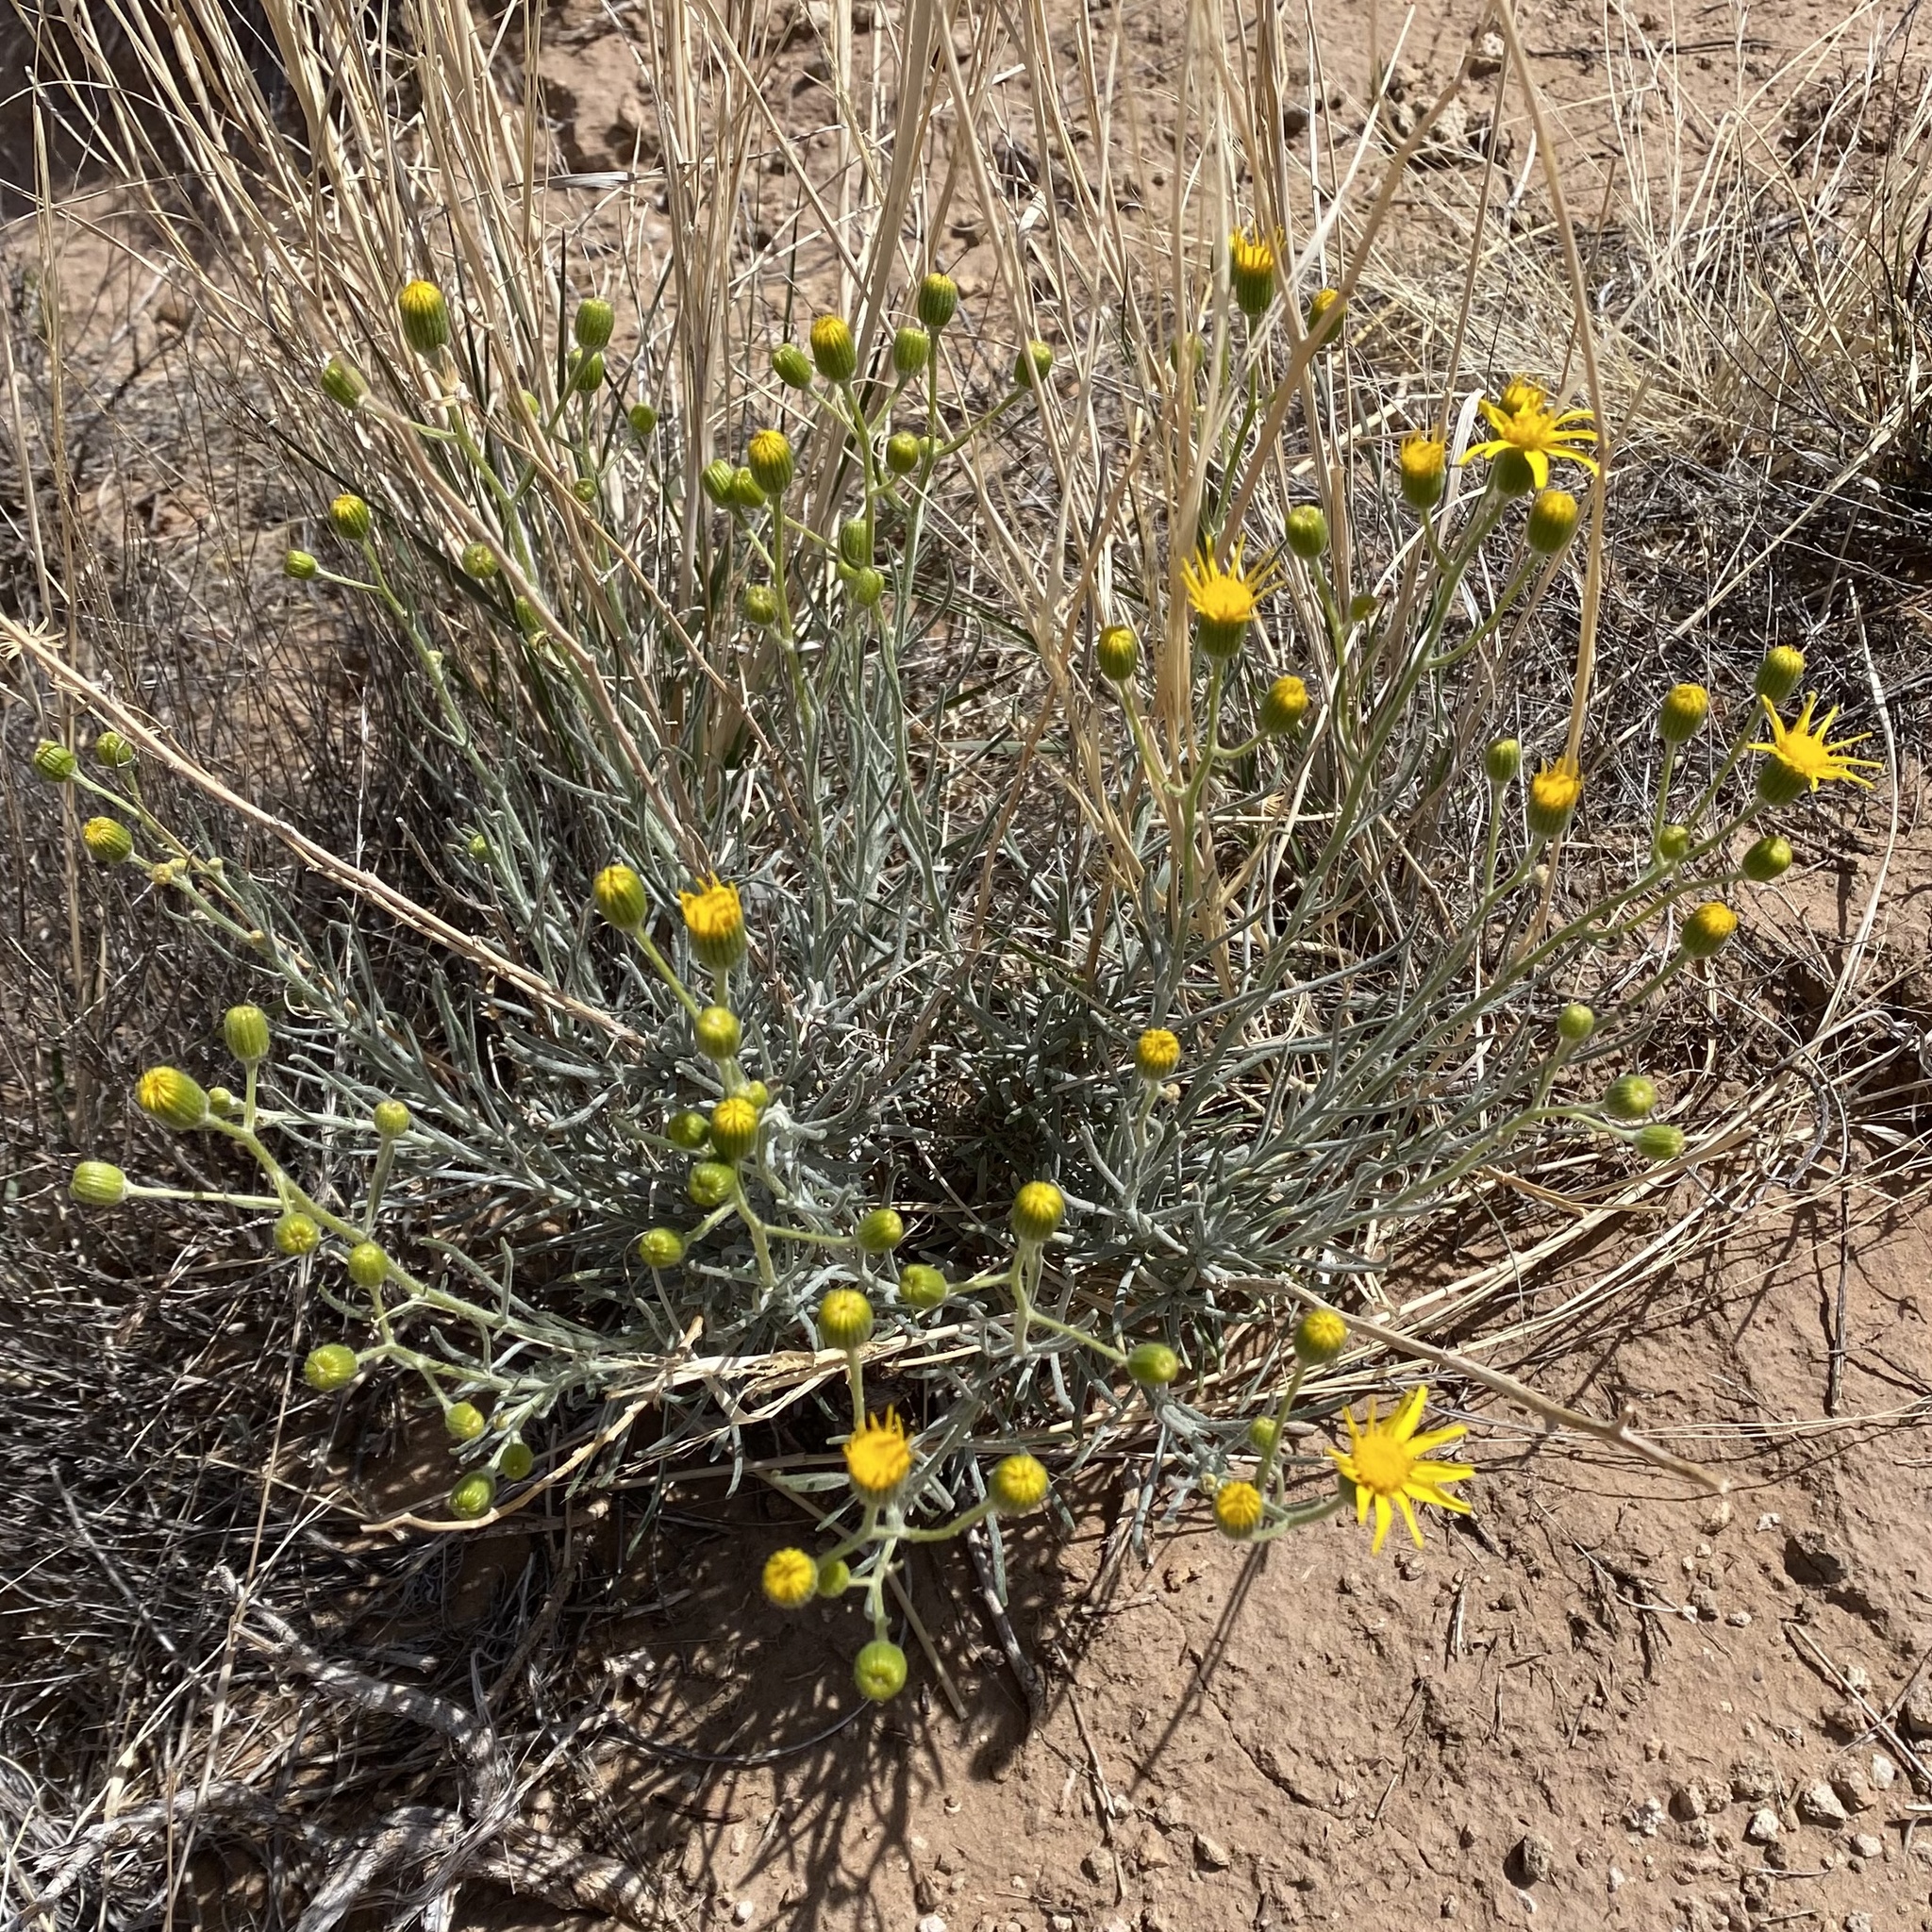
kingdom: Plantae
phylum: Tracheophyta
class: Magnoliopsida
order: Asterales
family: Asteraceae
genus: Senecio
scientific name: Senecio flaccidus
